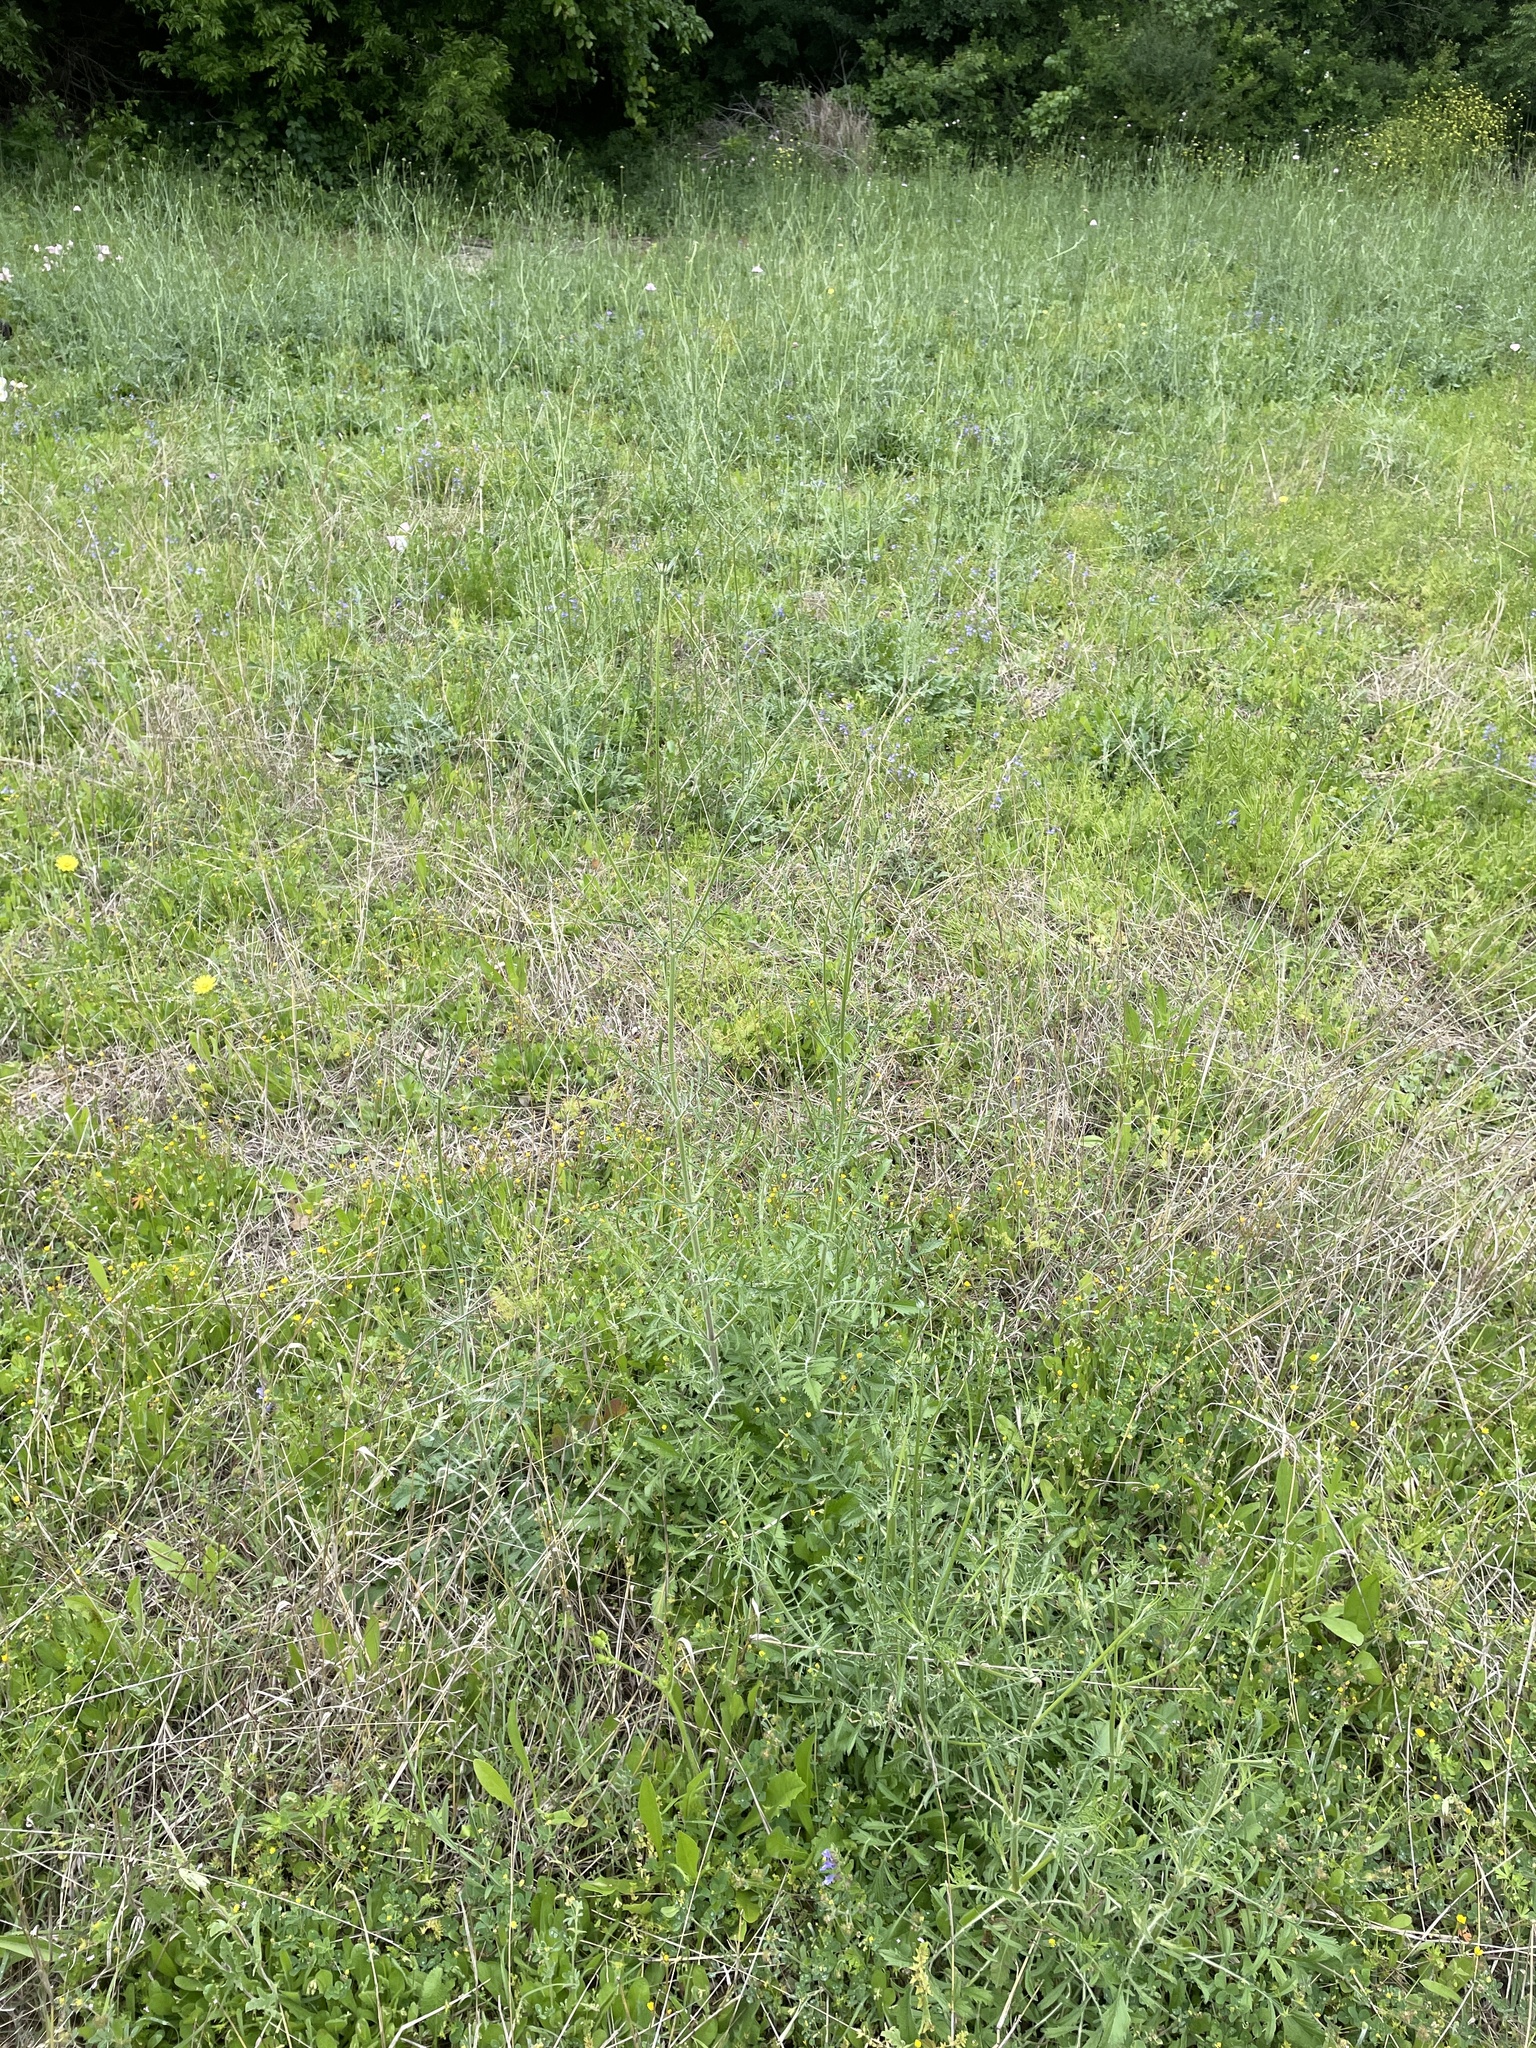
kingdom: Plantae
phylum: Tracheophyta
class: Magnoliopsida
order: Dipsacales
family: Caprifoliaceae
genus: Sixalix
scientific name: Sixalix atropurpurea
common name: Sweet scabious
